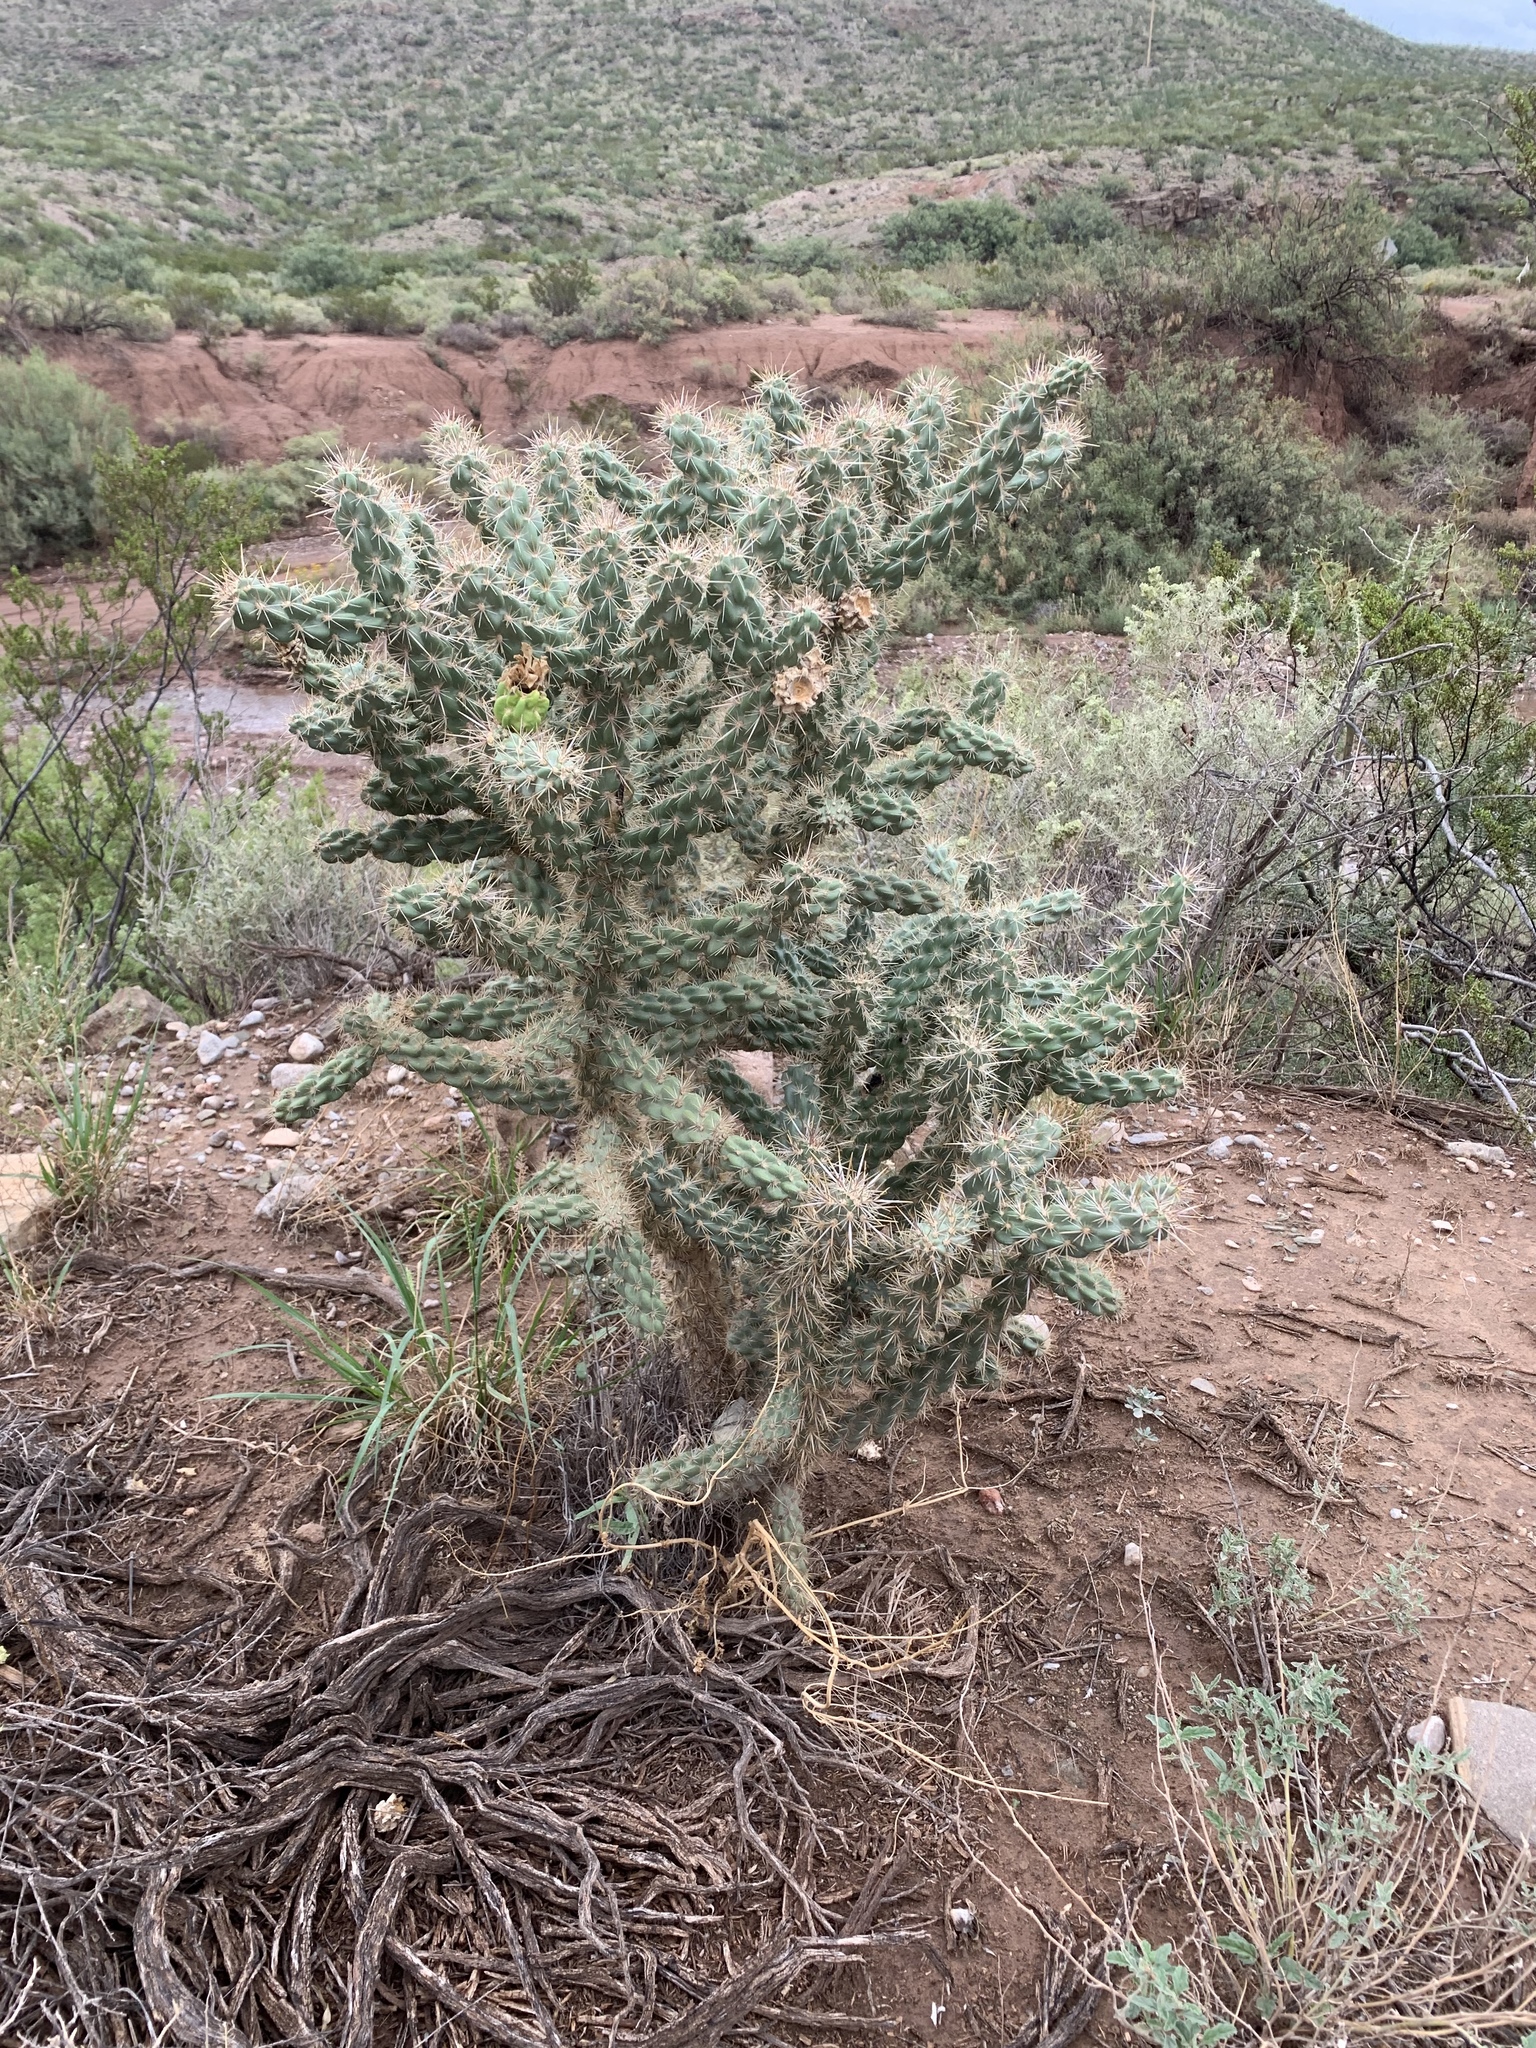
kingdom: Plantae
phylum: Tracheophyta
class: Magnoliopsida
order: Caryophyllales
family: Cactaceae
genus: Cylindropuntia
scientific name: Cylindropuntia imbricata
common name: Candelabrum cactus
